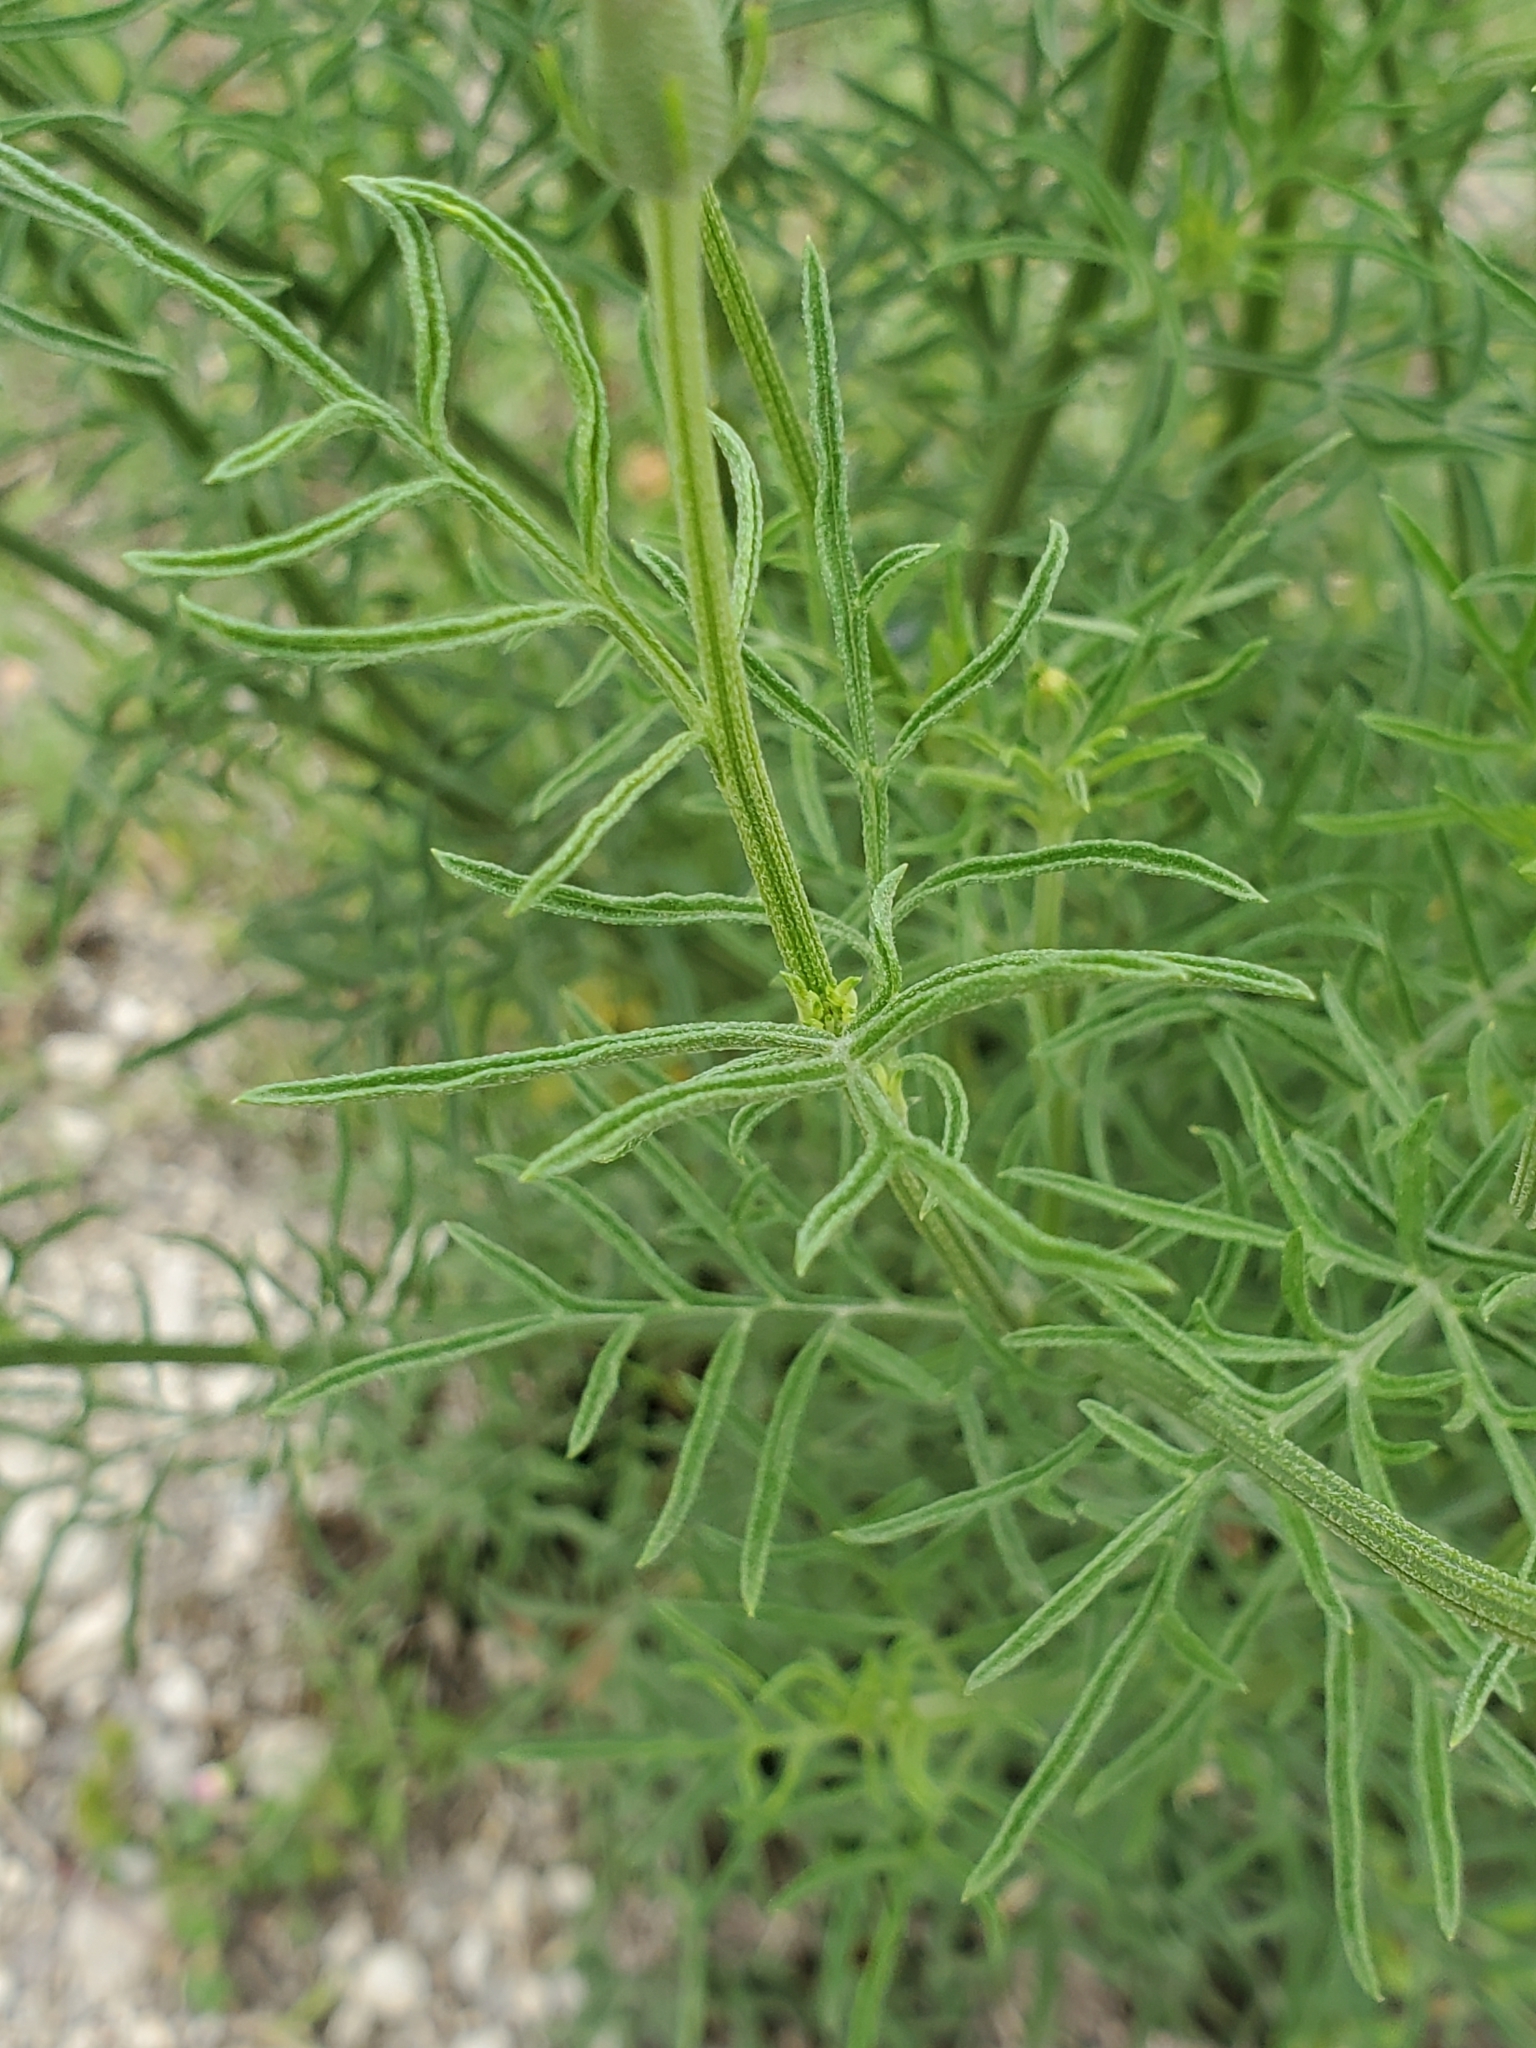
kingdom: Plantae
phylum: Tracheophyta
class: Magnoliopsida
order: Asterales
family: Asteraceae
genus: Ratibida
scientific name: Ratibida columnifera
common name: Prairie coneflower
